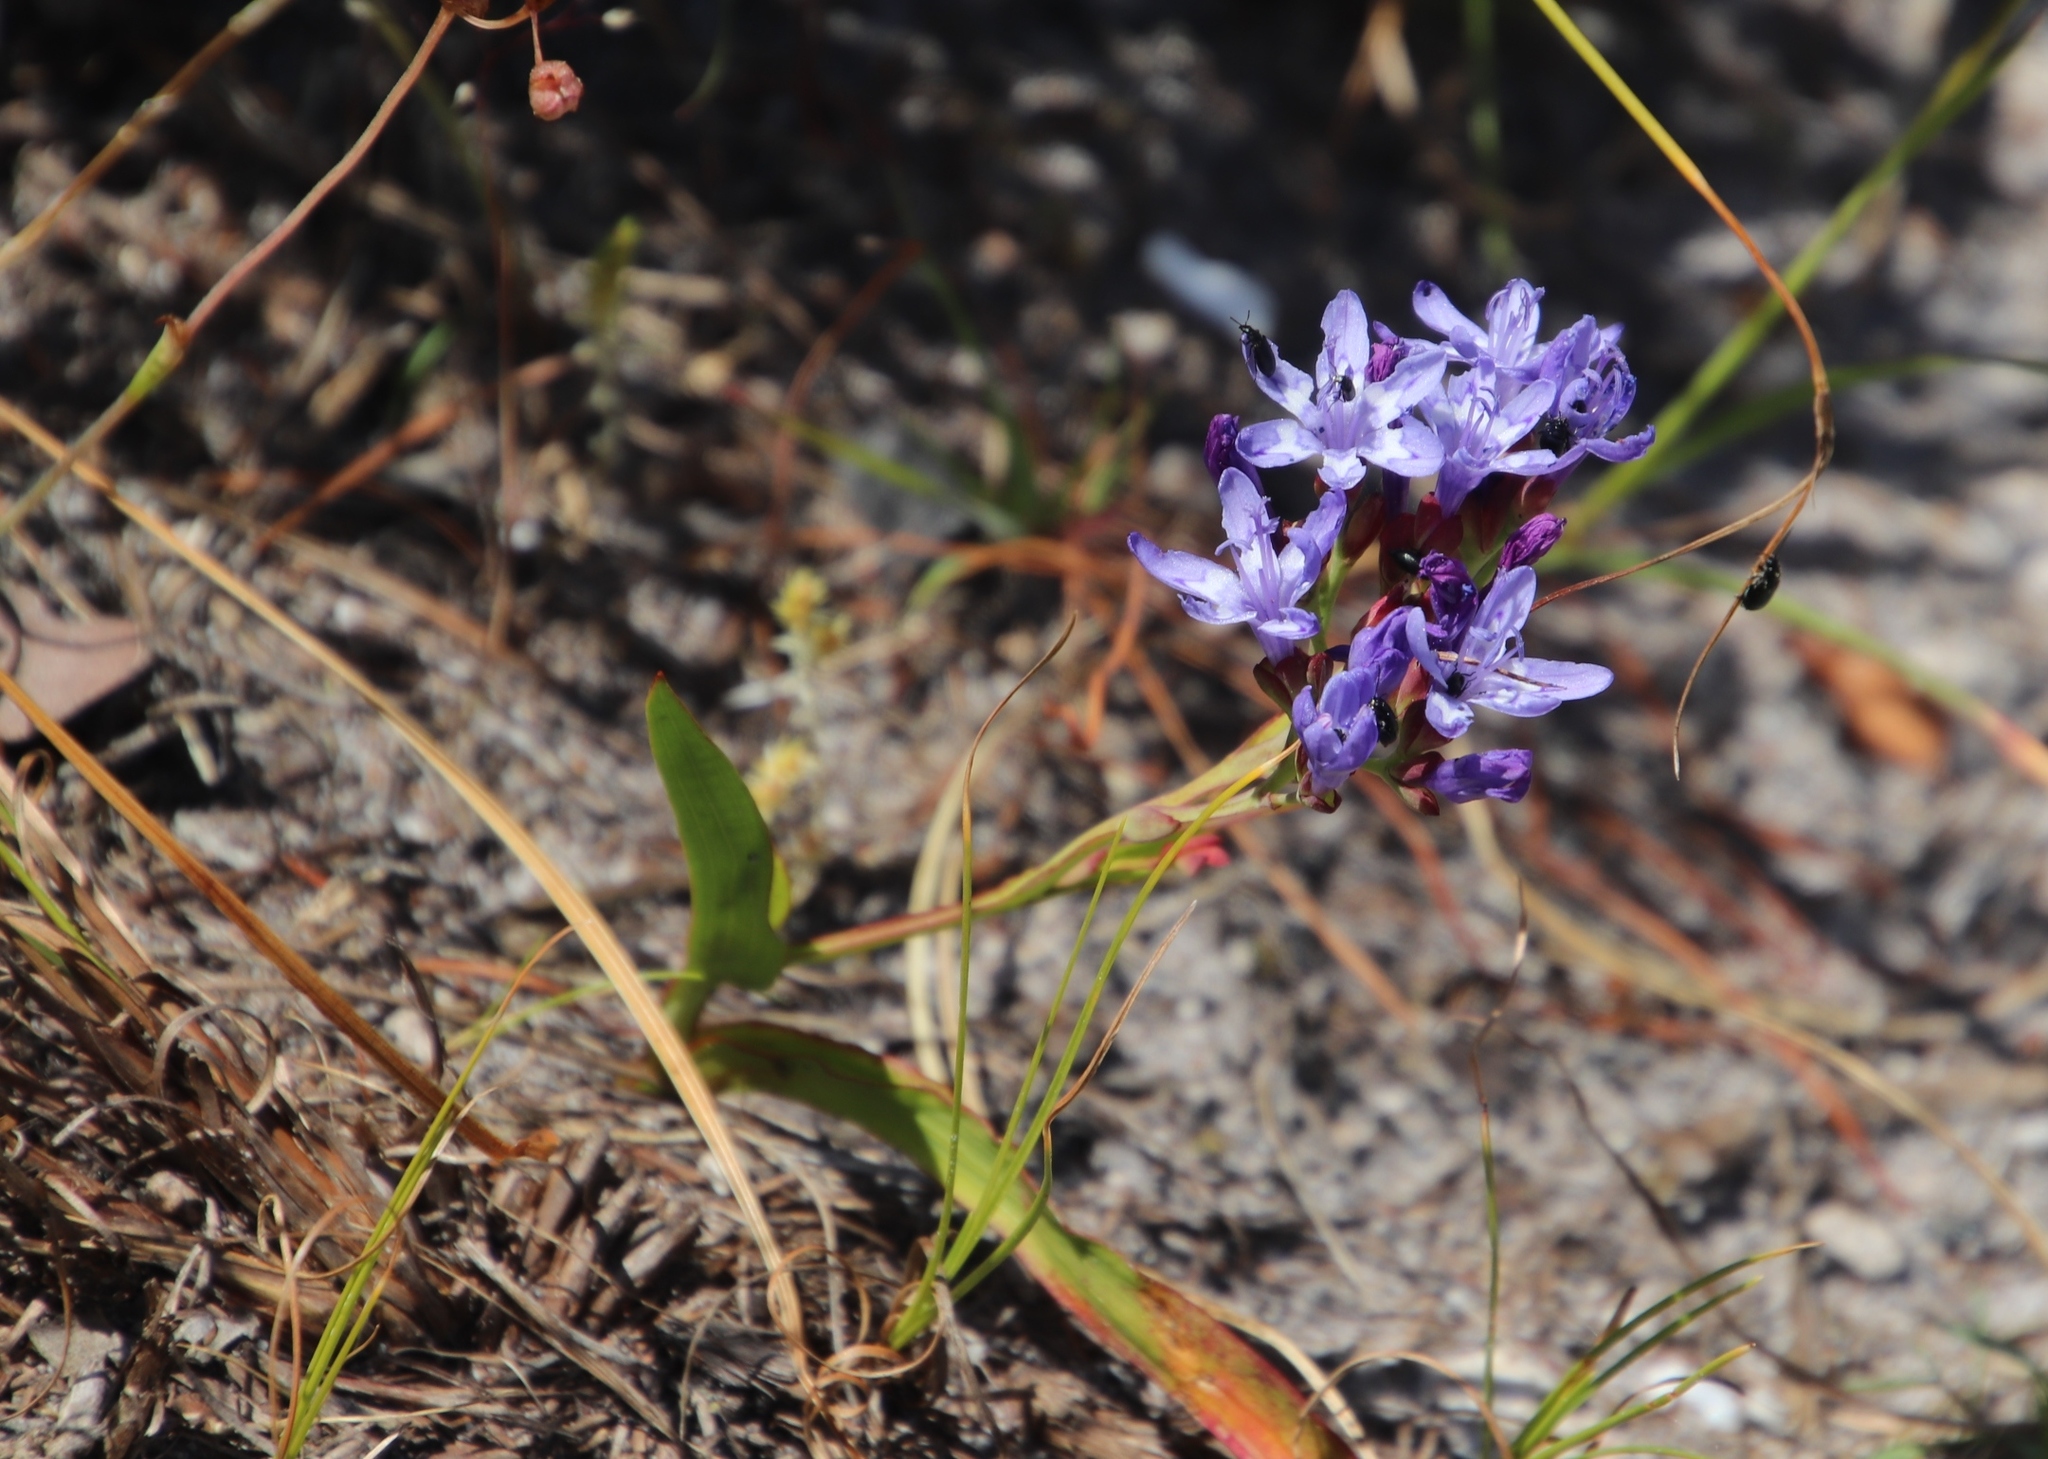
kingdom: Plantae
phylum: Tracheophyta
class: Liliopsida
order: Asparagales
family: Iridaceae
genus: Codonorhiza
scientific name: Codonorhiza corymbosa
